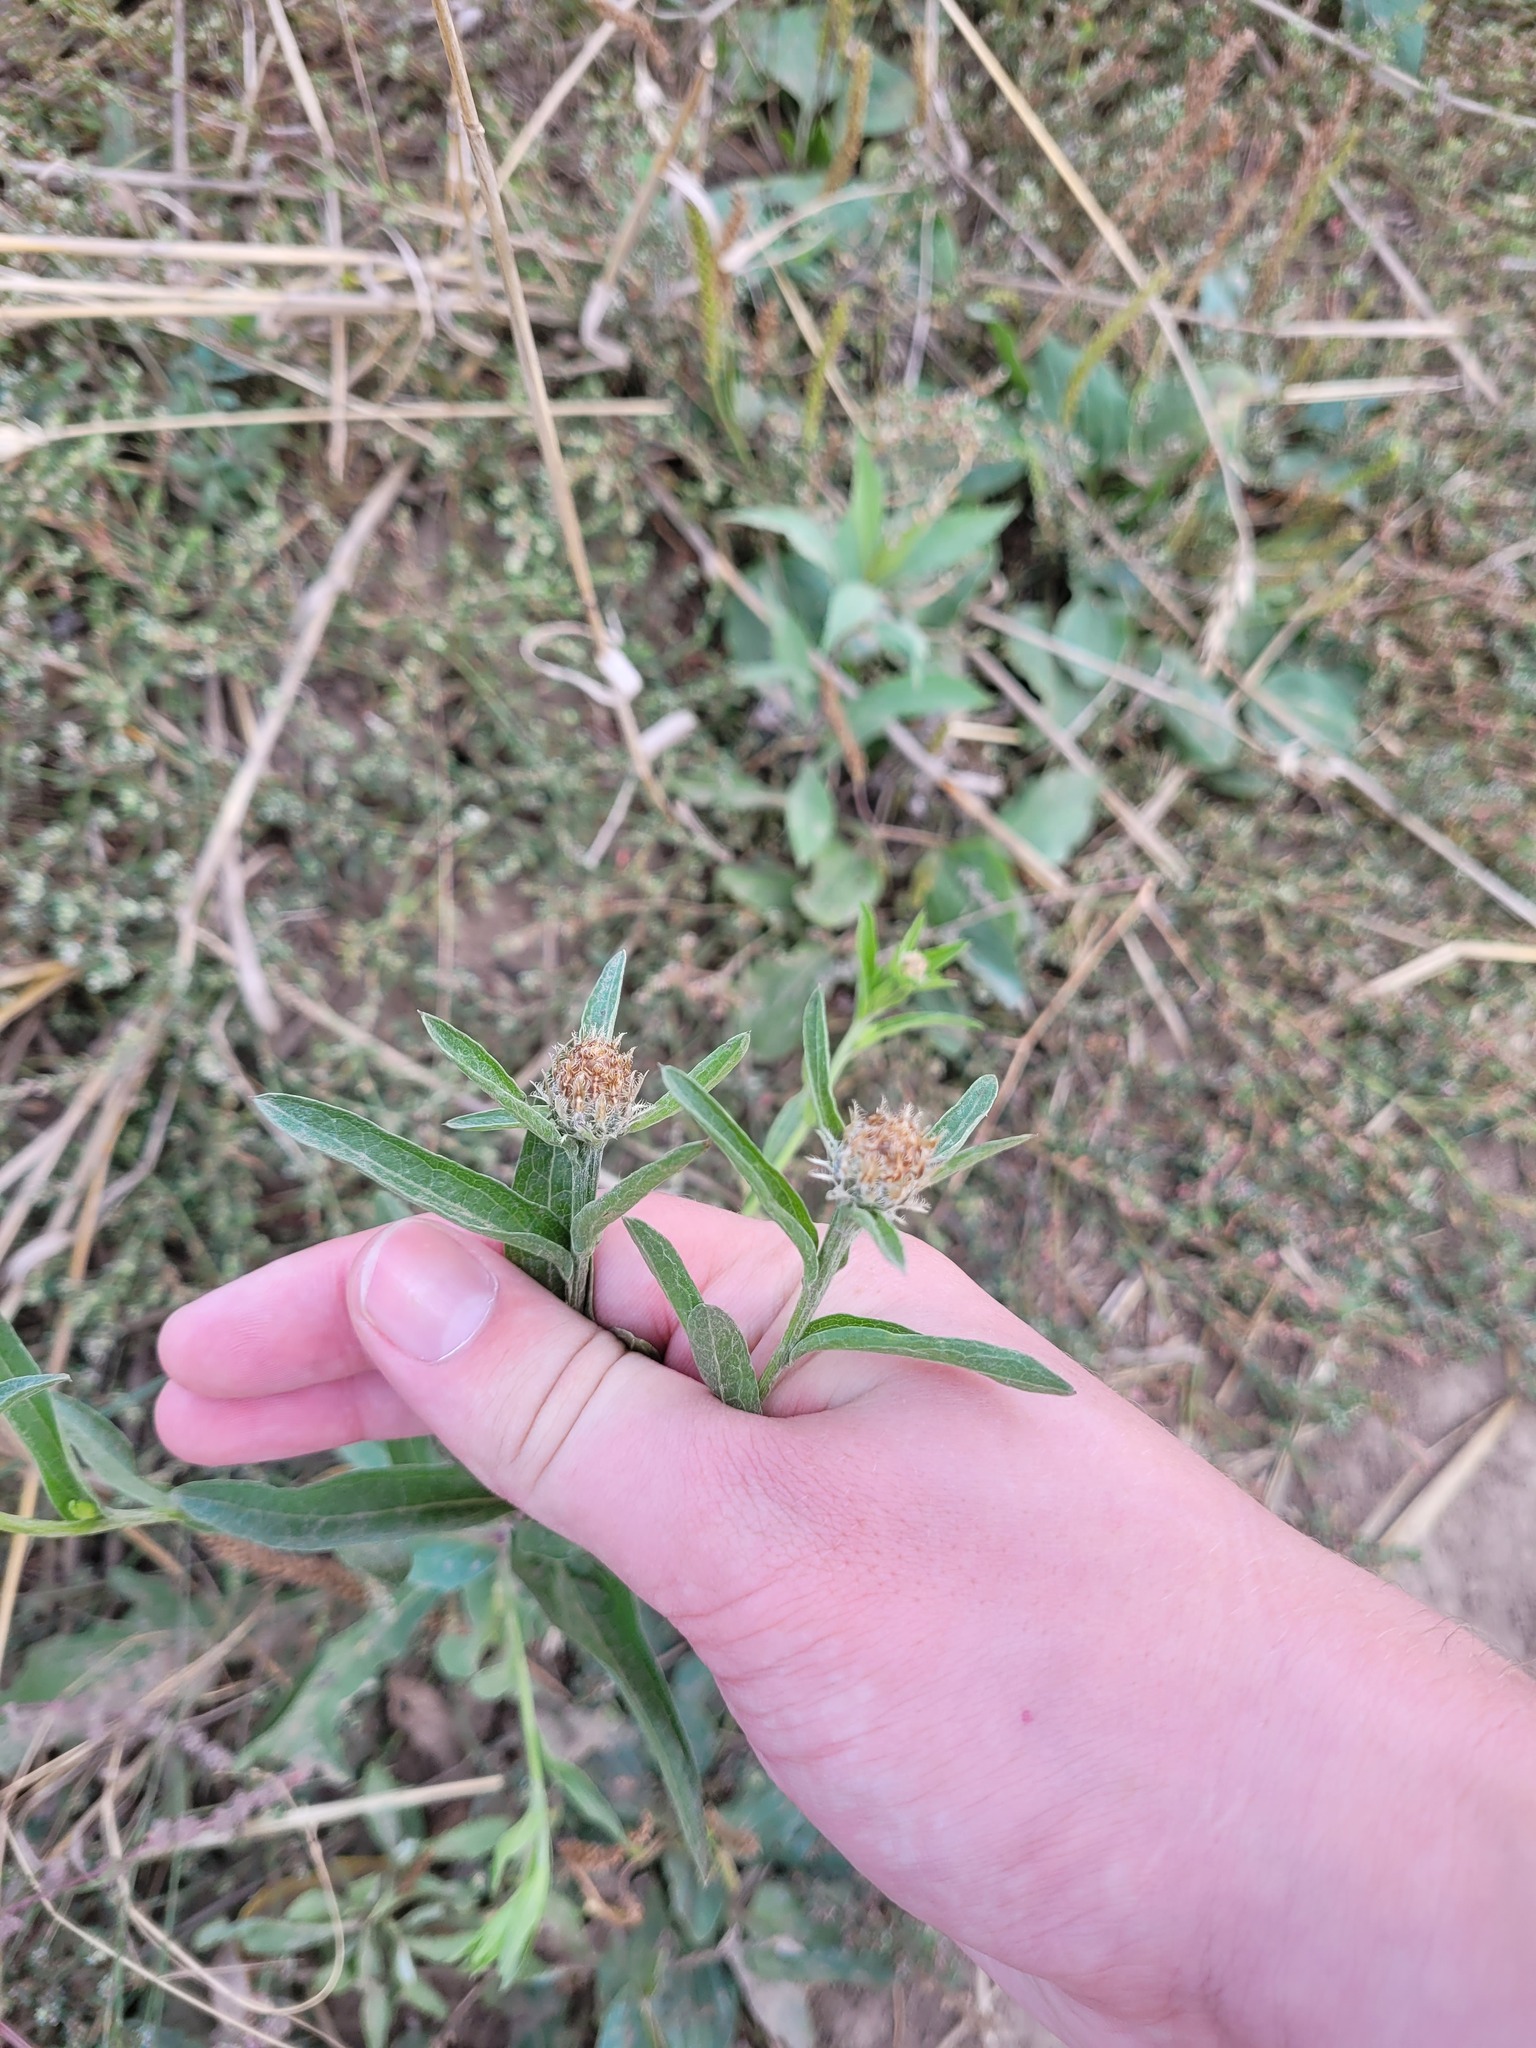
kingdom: Plantae
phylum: Tracheophyta
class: Magnoliopsida
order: Asterales
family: Asteraceae
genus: Centaurea
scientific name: Centaurea livonica
